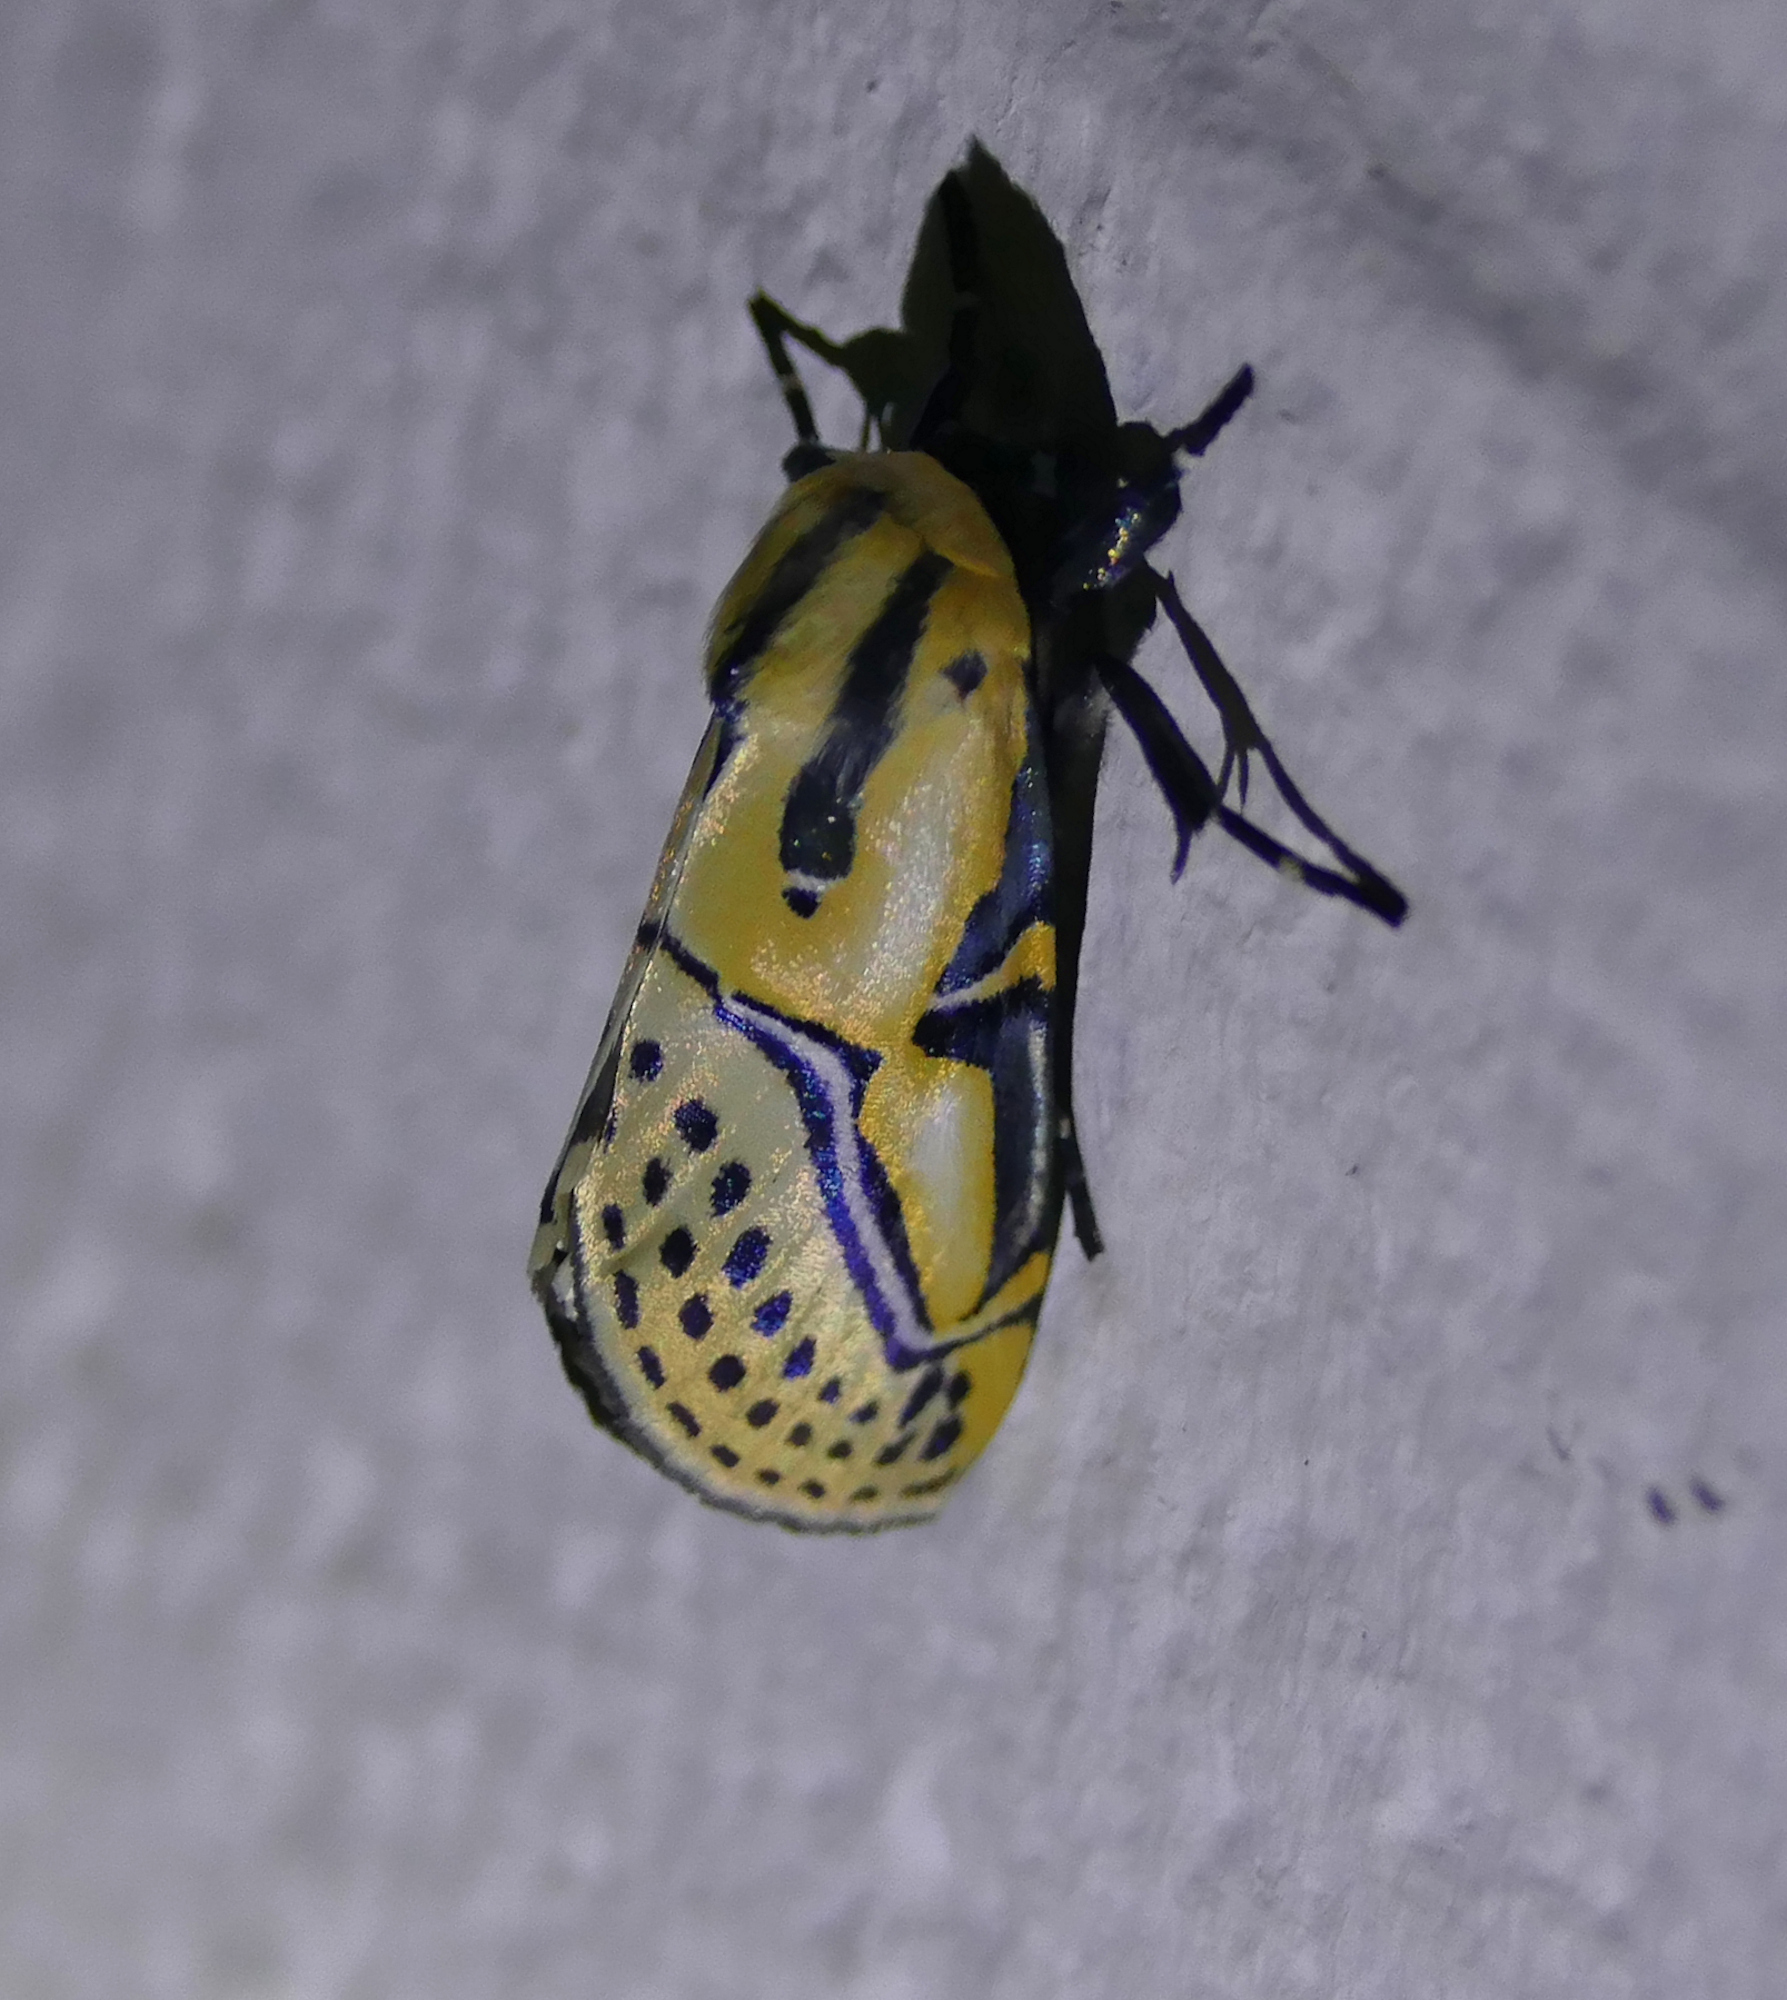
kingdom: Animalia
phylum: Arthropoda
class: Insecta
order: Lepidoptera
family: Erebidae
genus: Diphthera
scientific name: Diphthera festiva
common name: Hieroglyphic moth
